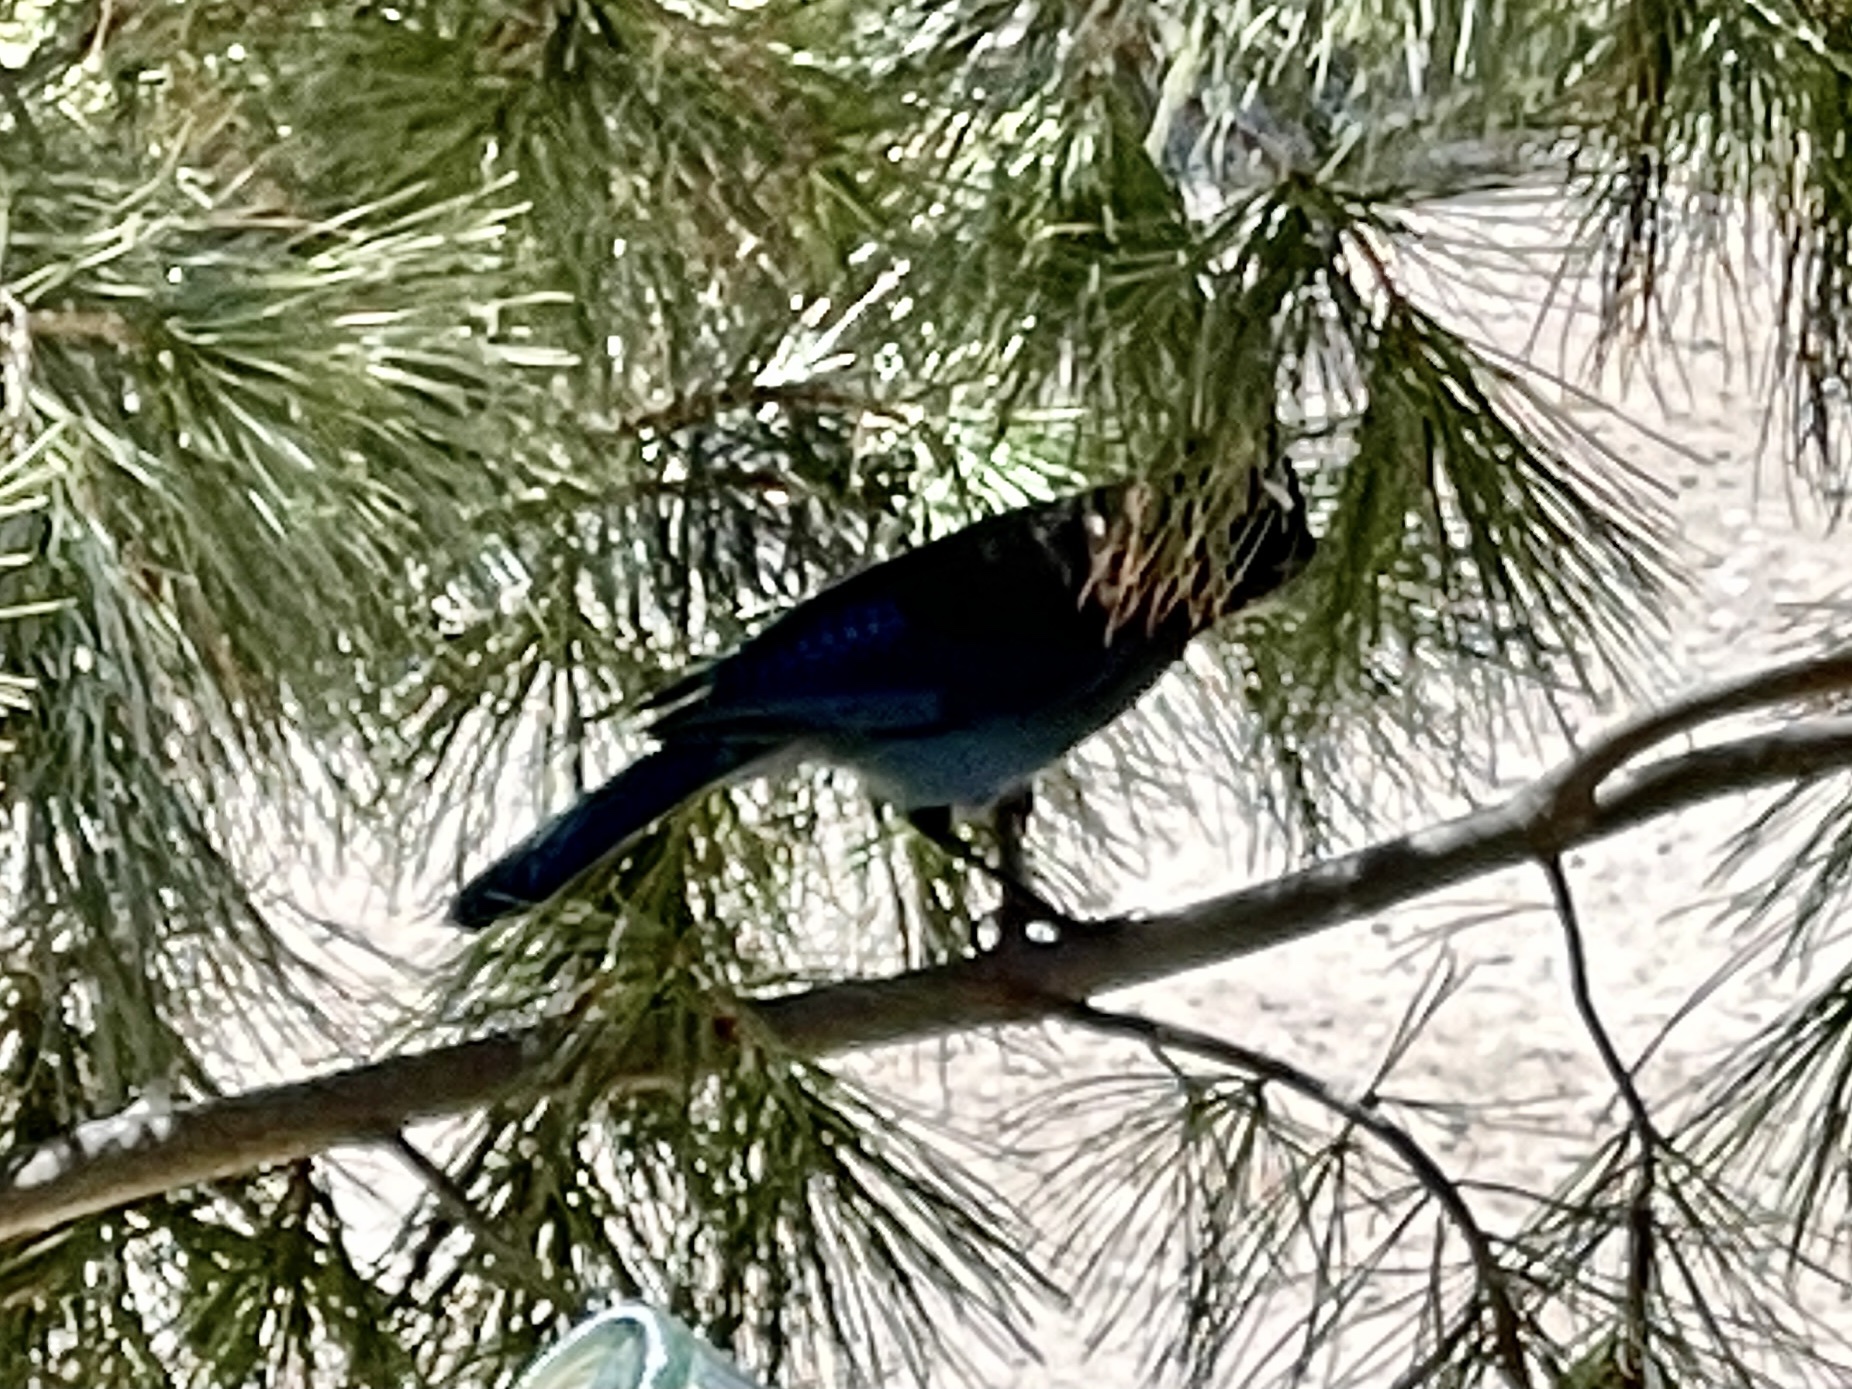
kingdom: Animalia
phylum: Chordata
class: Aves
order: Passeriformes
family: Corvidae
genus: Cyanocitta
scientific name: Cyanocitta stelleri
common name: Steller's jay
